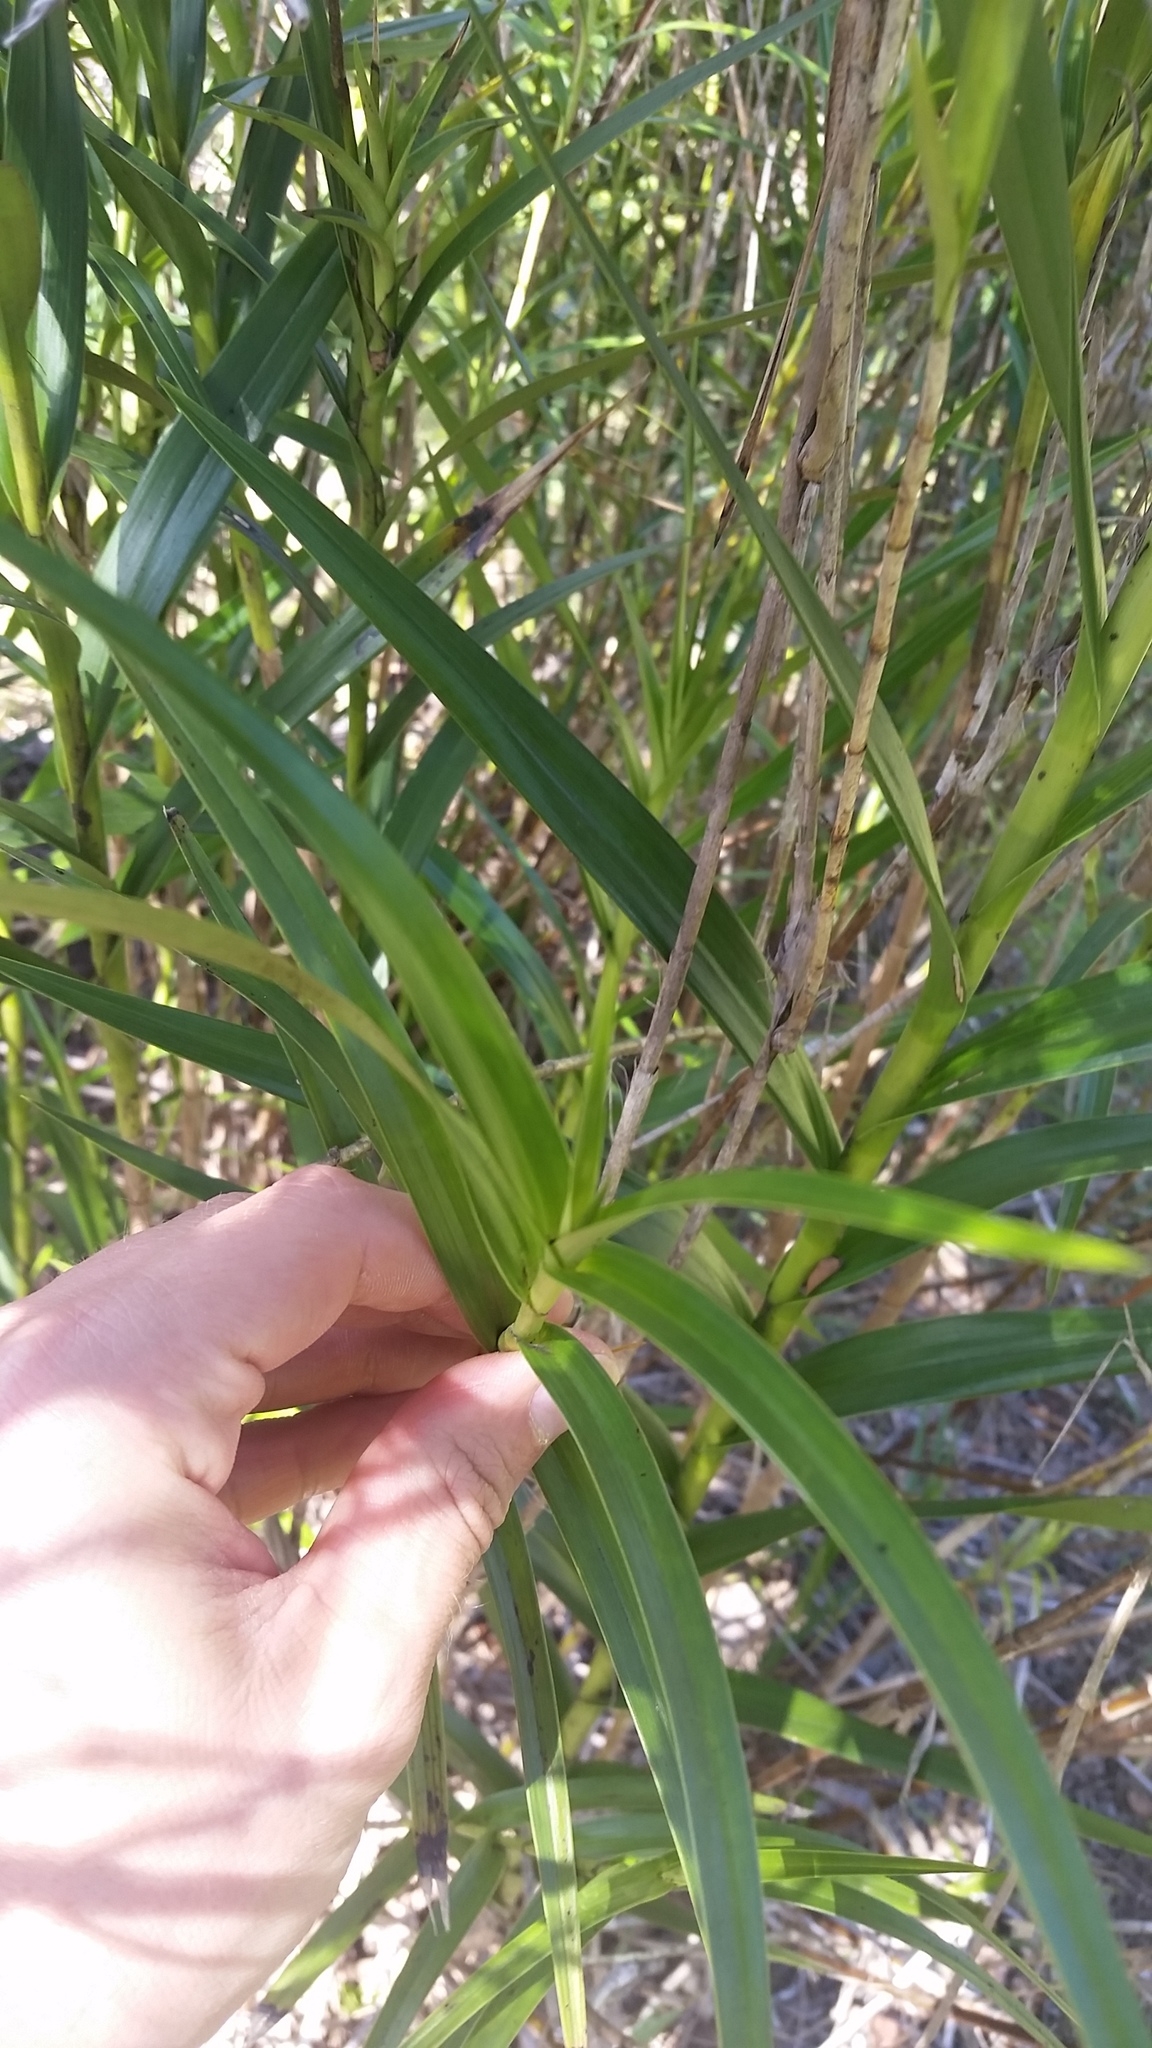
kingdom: Plantae
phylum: Tracheophyta
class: Liliopsida
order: Asparagales
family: Orchidaceae
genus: Arundina
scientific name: Arundina graminifolia
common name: Bamboo orchid
